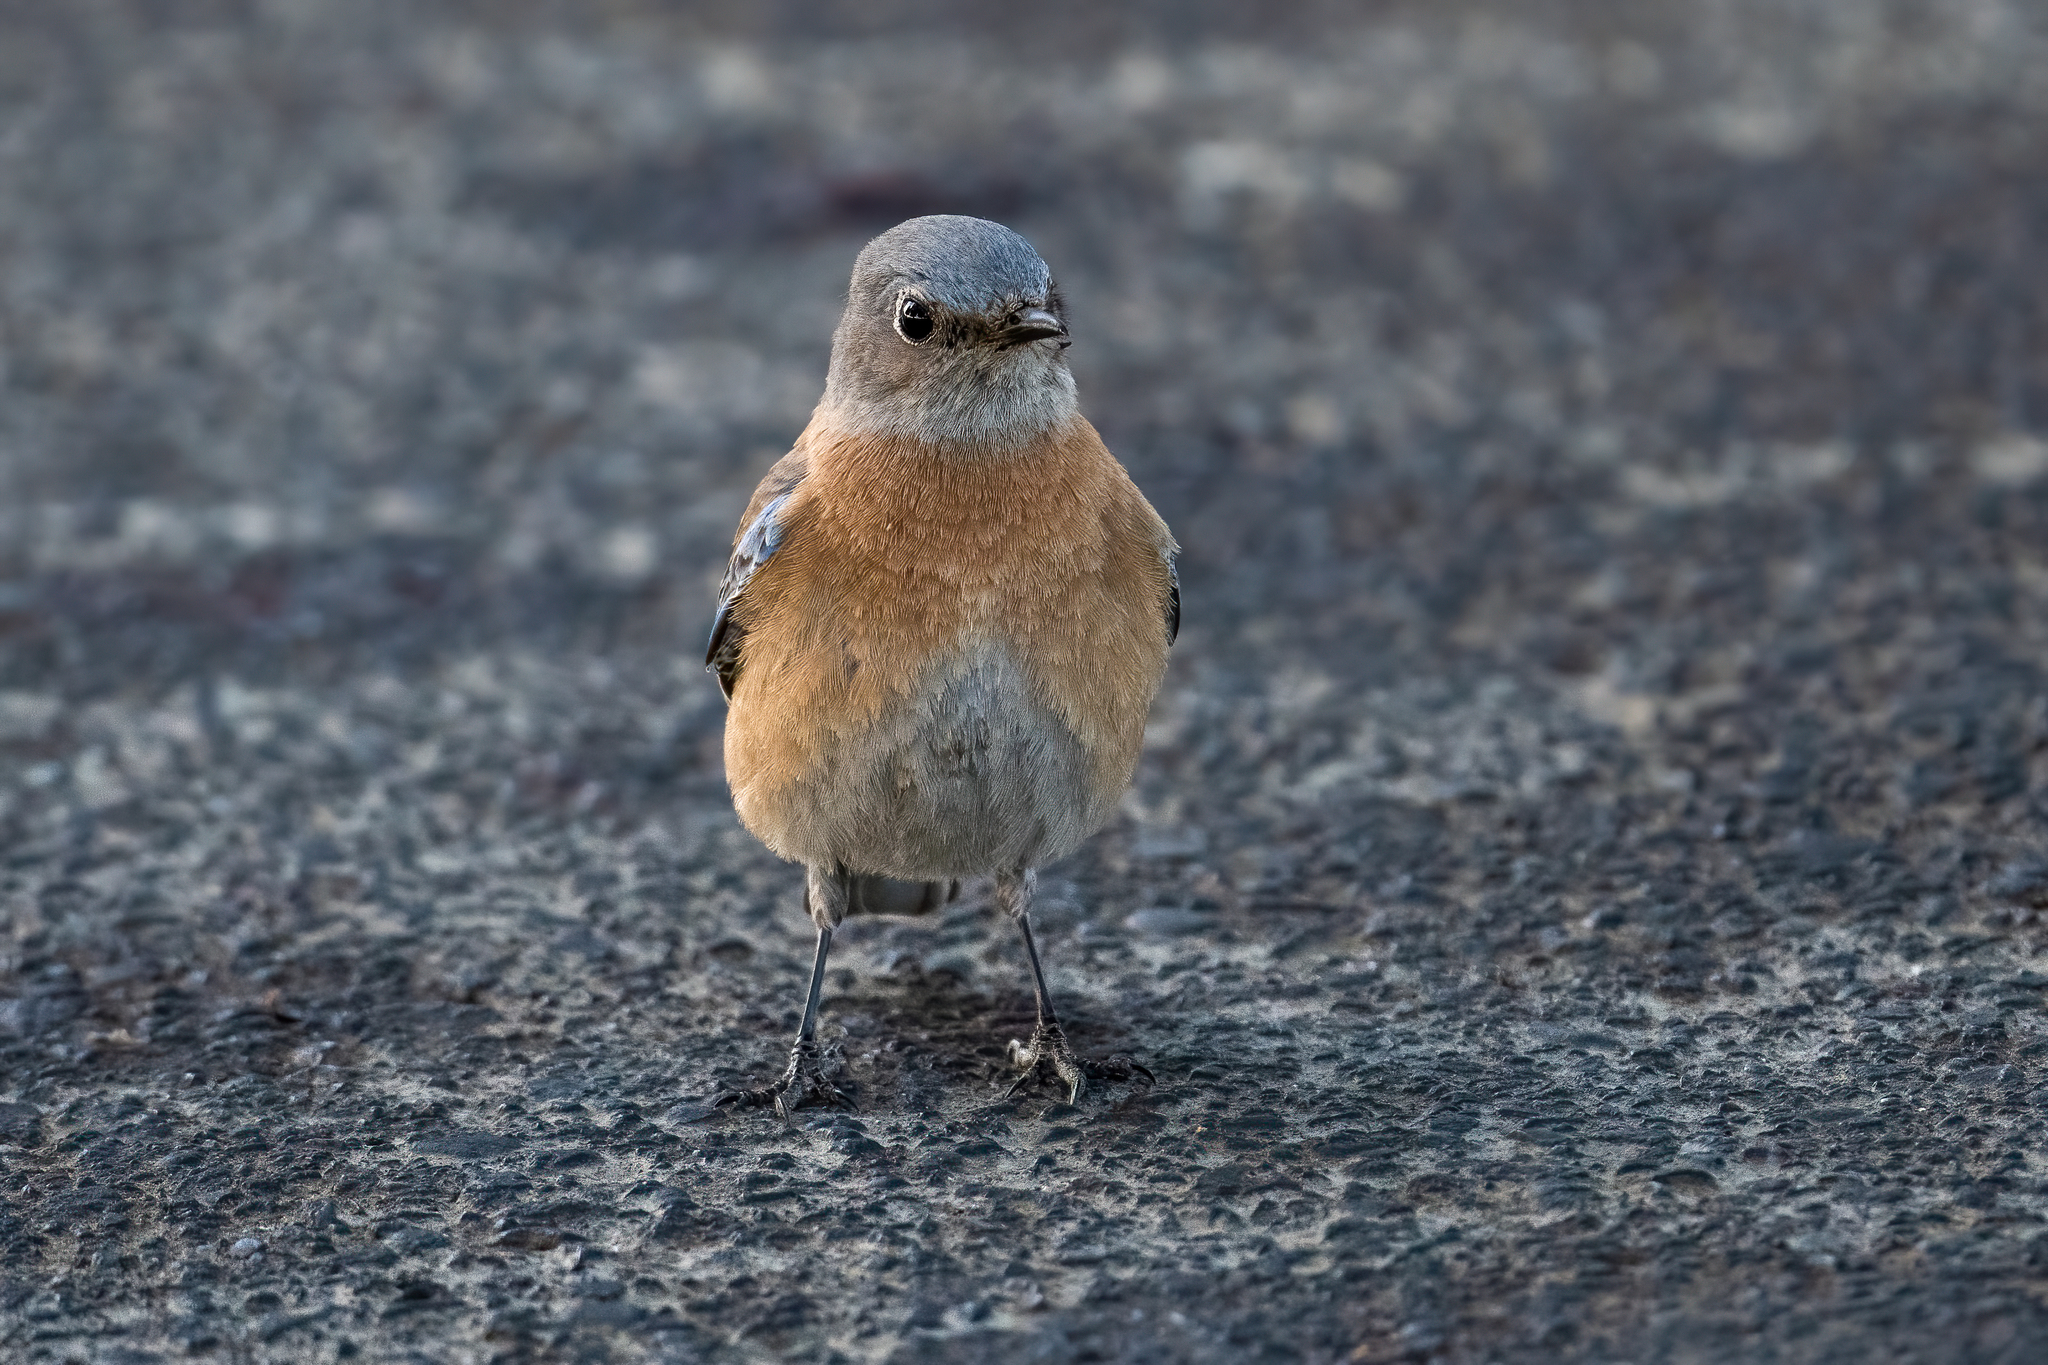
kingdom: Animalia
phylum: Chordata
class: Aves
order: Passeriformes
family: Turdidae
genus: Sialia
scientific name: Sialia mexicana
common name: Western bluebird
